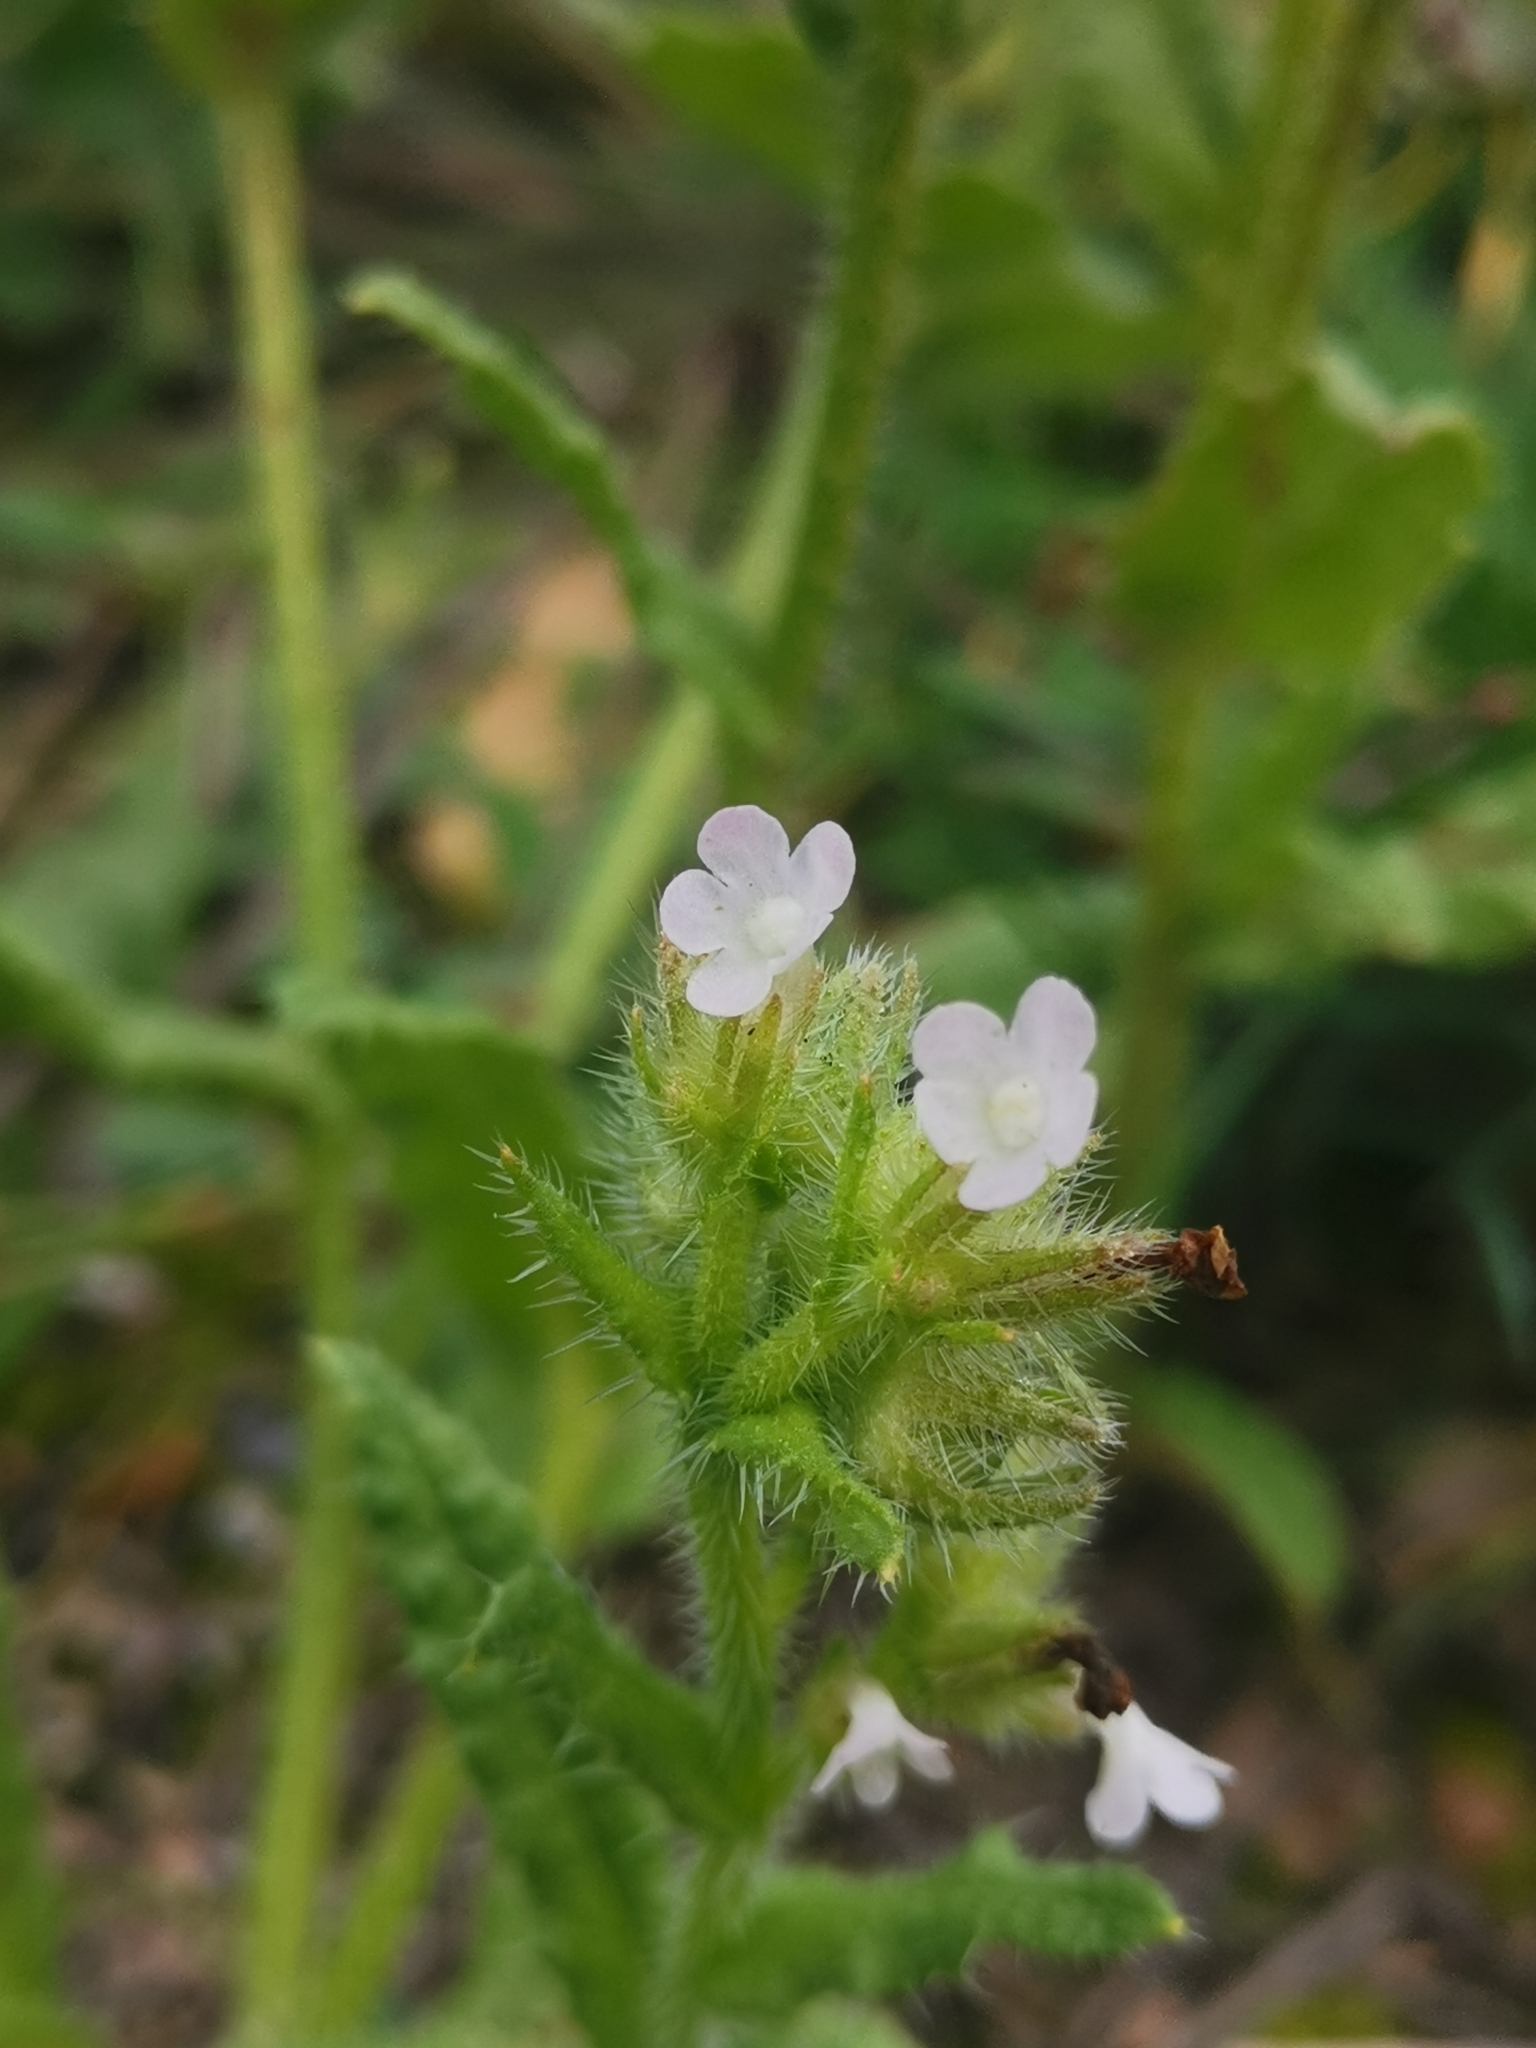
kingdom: Plantae
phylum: Tracheophyta
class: Magnoliopsida
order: Boraginales
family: Boraginaceae
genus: Lycopsis
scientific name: Lycopsis arvensis
